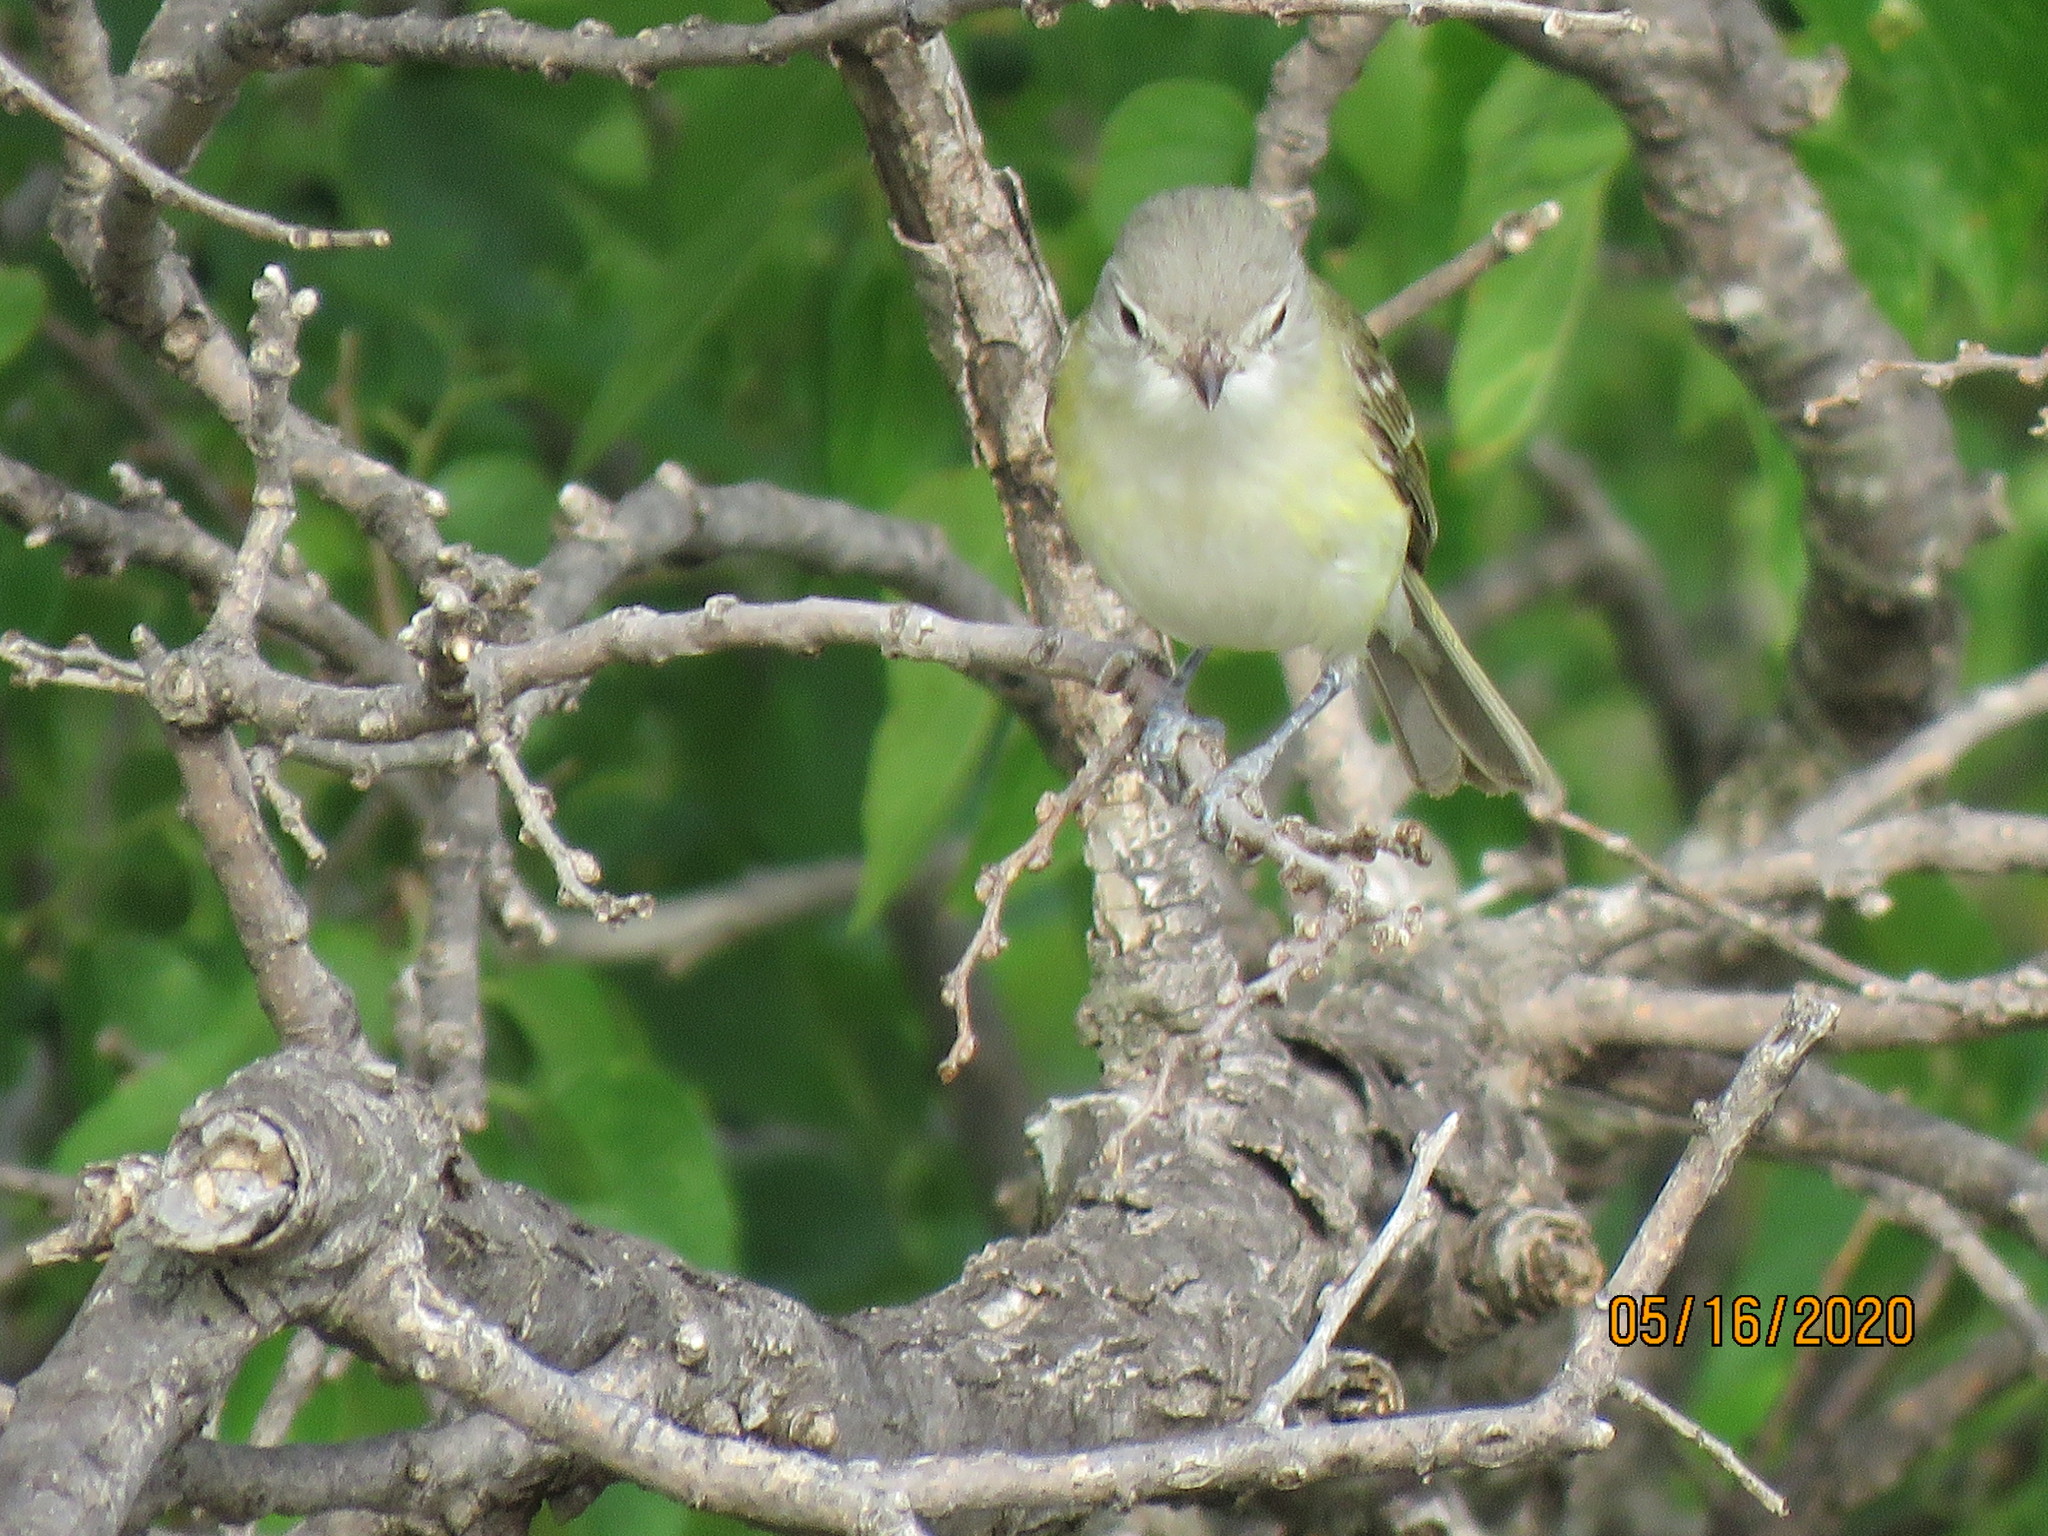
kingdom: Animalia
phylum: Chordata
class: Aves
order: Passeriformes
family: Vireonidae
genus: Vireo
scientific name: Vireo bellii
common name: Bell's vireo
